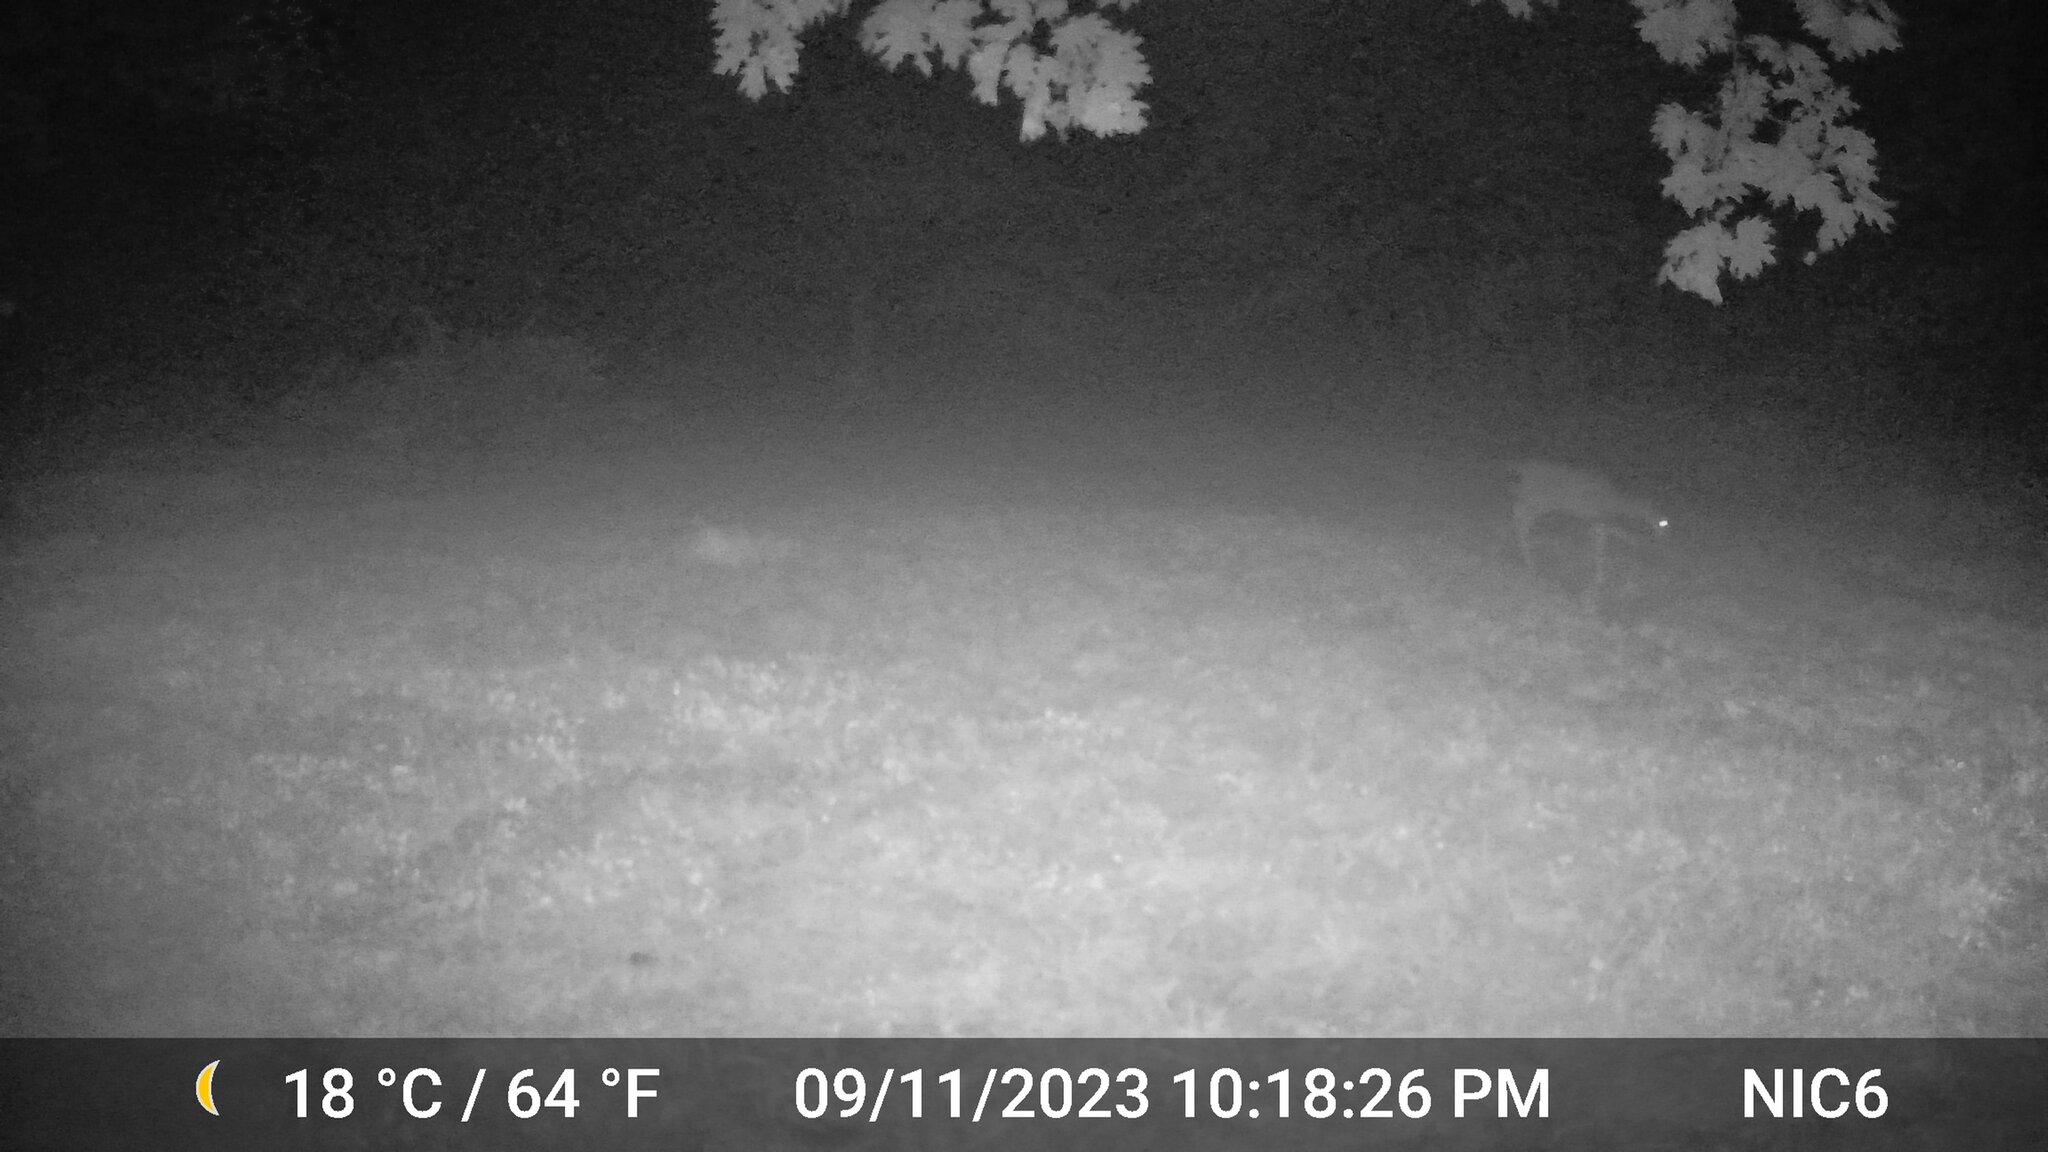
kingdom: Animalia
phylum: Chordata
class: Mammalia
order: Artiodactyla
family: Cervidae
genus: Odocoileus
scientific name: Odocoileus virginianus
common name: White-tailed deer
